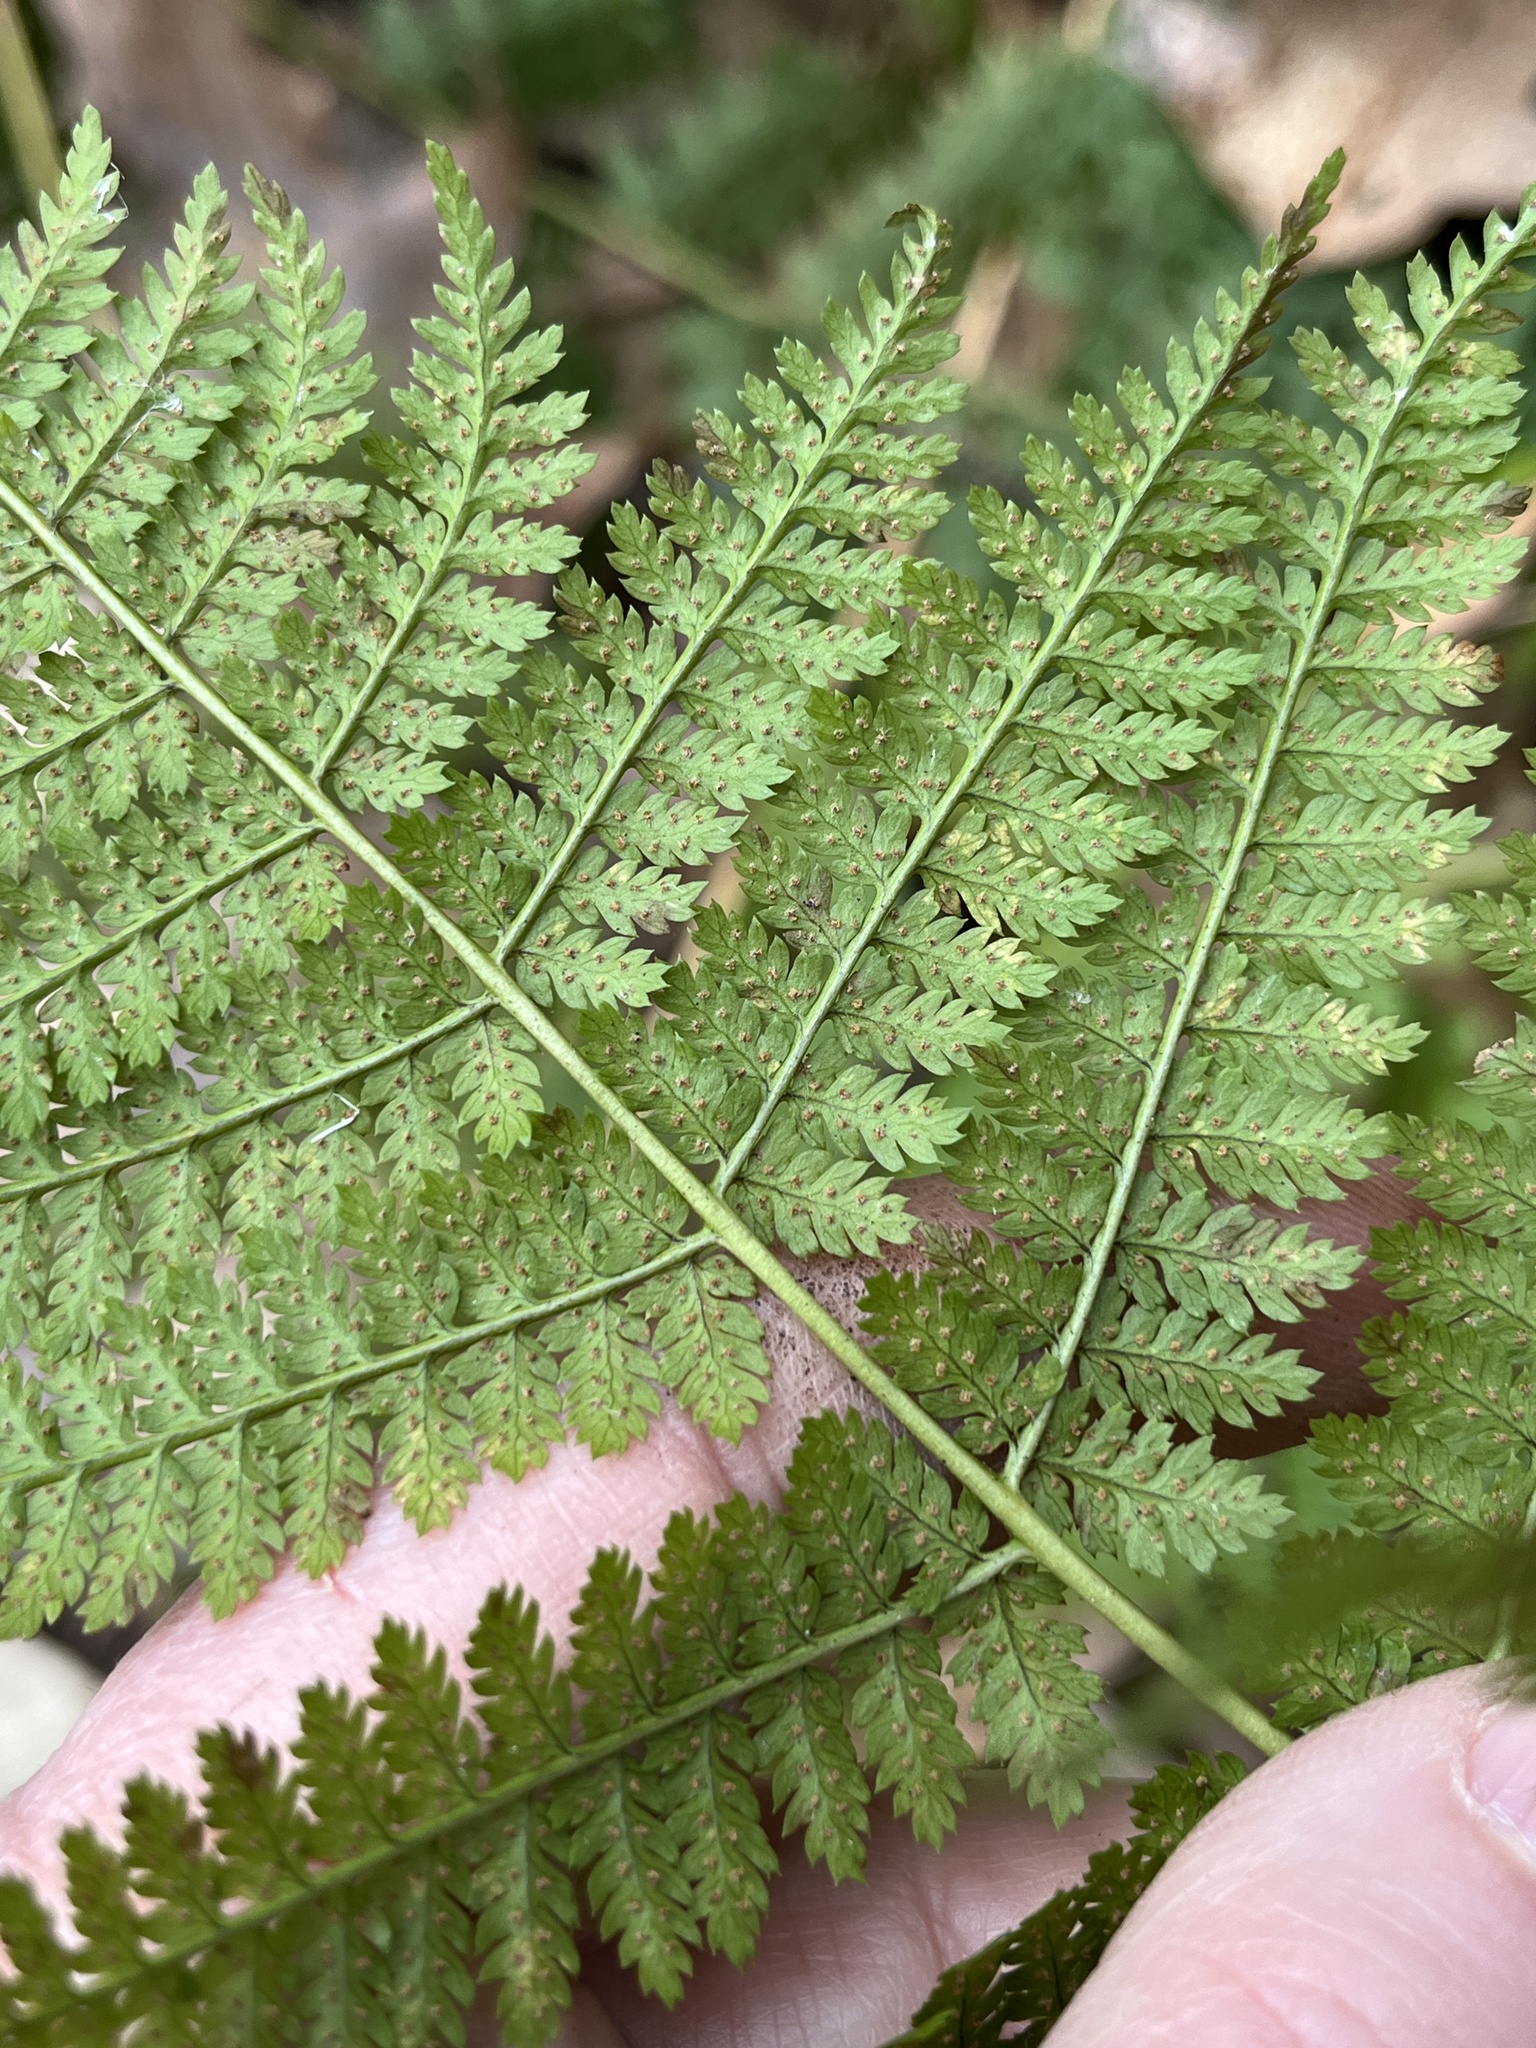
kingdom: Plantae
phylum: Tracheophyta
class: Polypodiopsida
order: Polypodiales
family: Dryopteridaceae
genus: Dryopteris
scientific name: Dryopteris intermedia
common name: Evergreen wood fern
